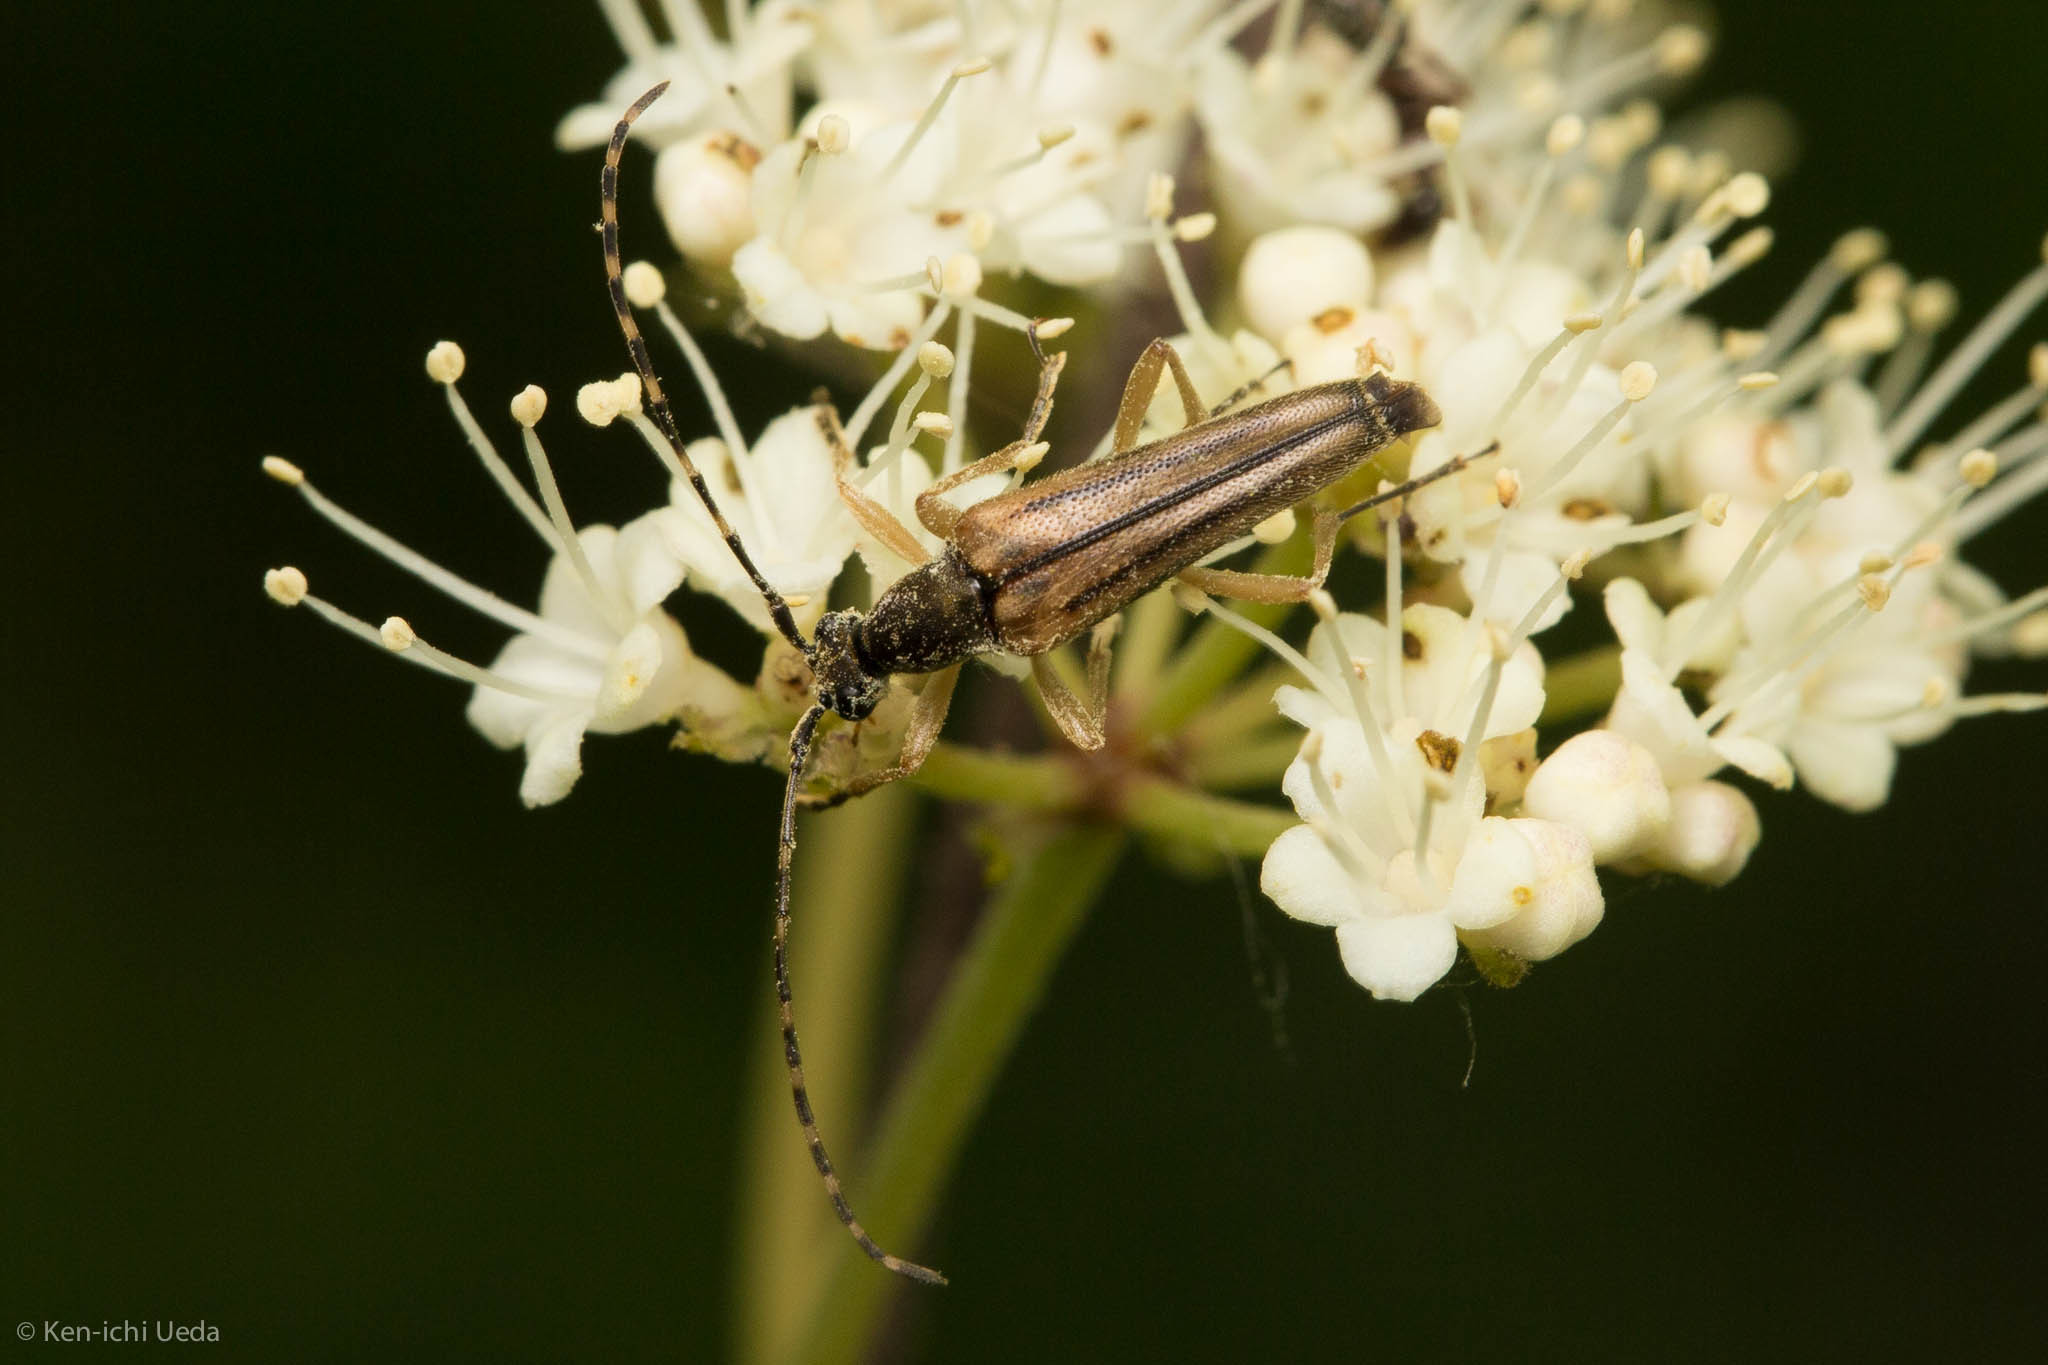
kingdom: Animalia
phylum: Arthropoda
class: Insecta
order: Coleoptera
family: Cerambycidae
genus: Analeptura
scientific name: Analeptura lineola
